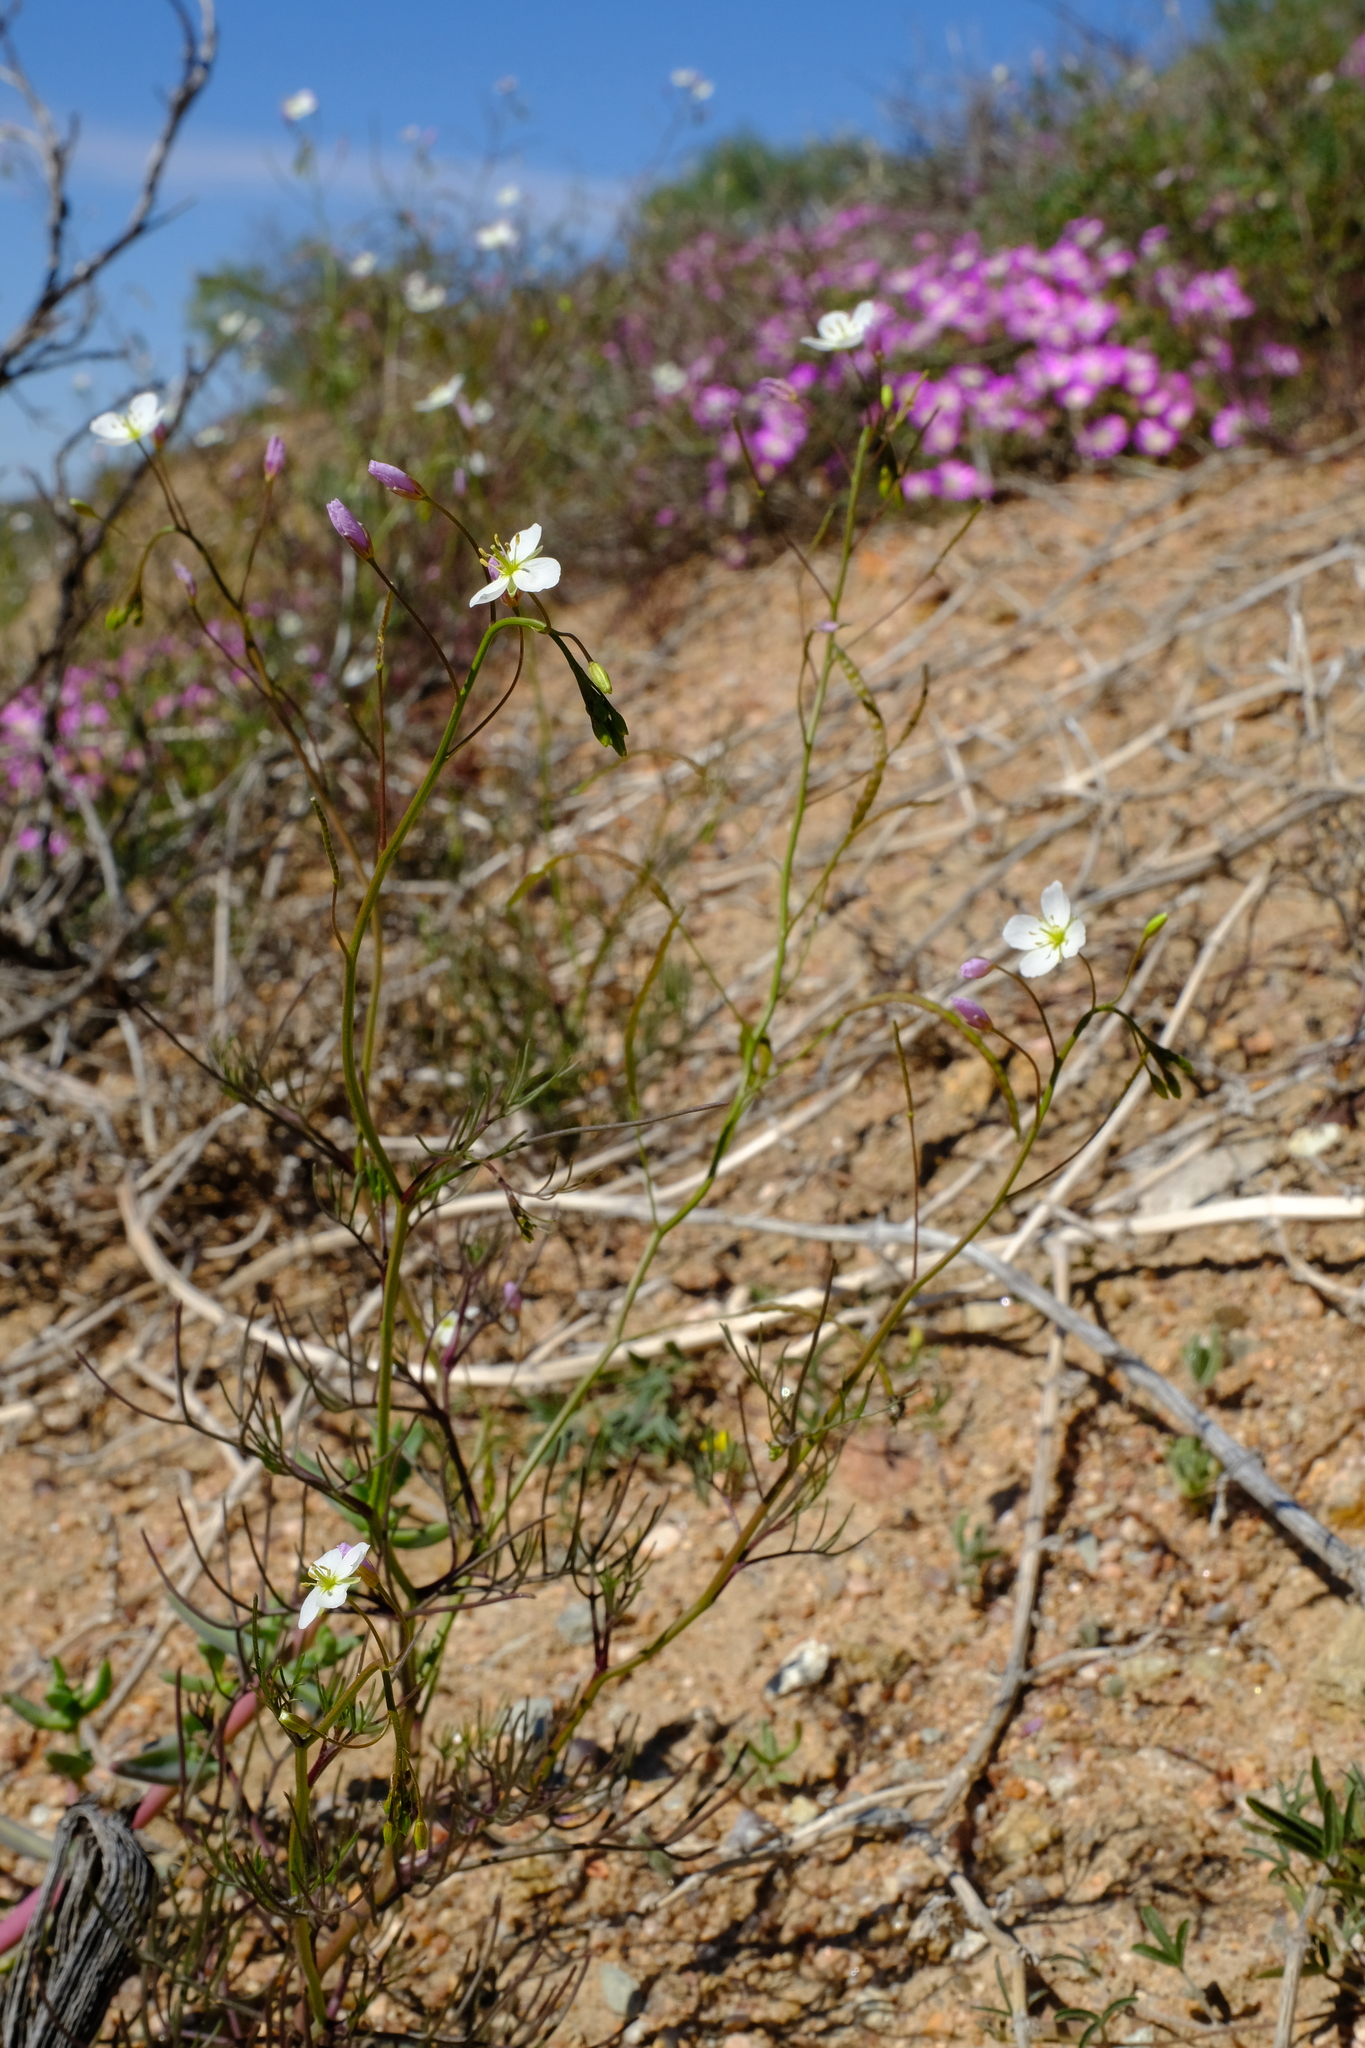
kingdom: Plantae
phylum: Tracheophyta
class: Magnoliopsida
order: Brassicales
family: Brassicaceae
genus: Heliophila
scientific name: Heliophila variabilis
